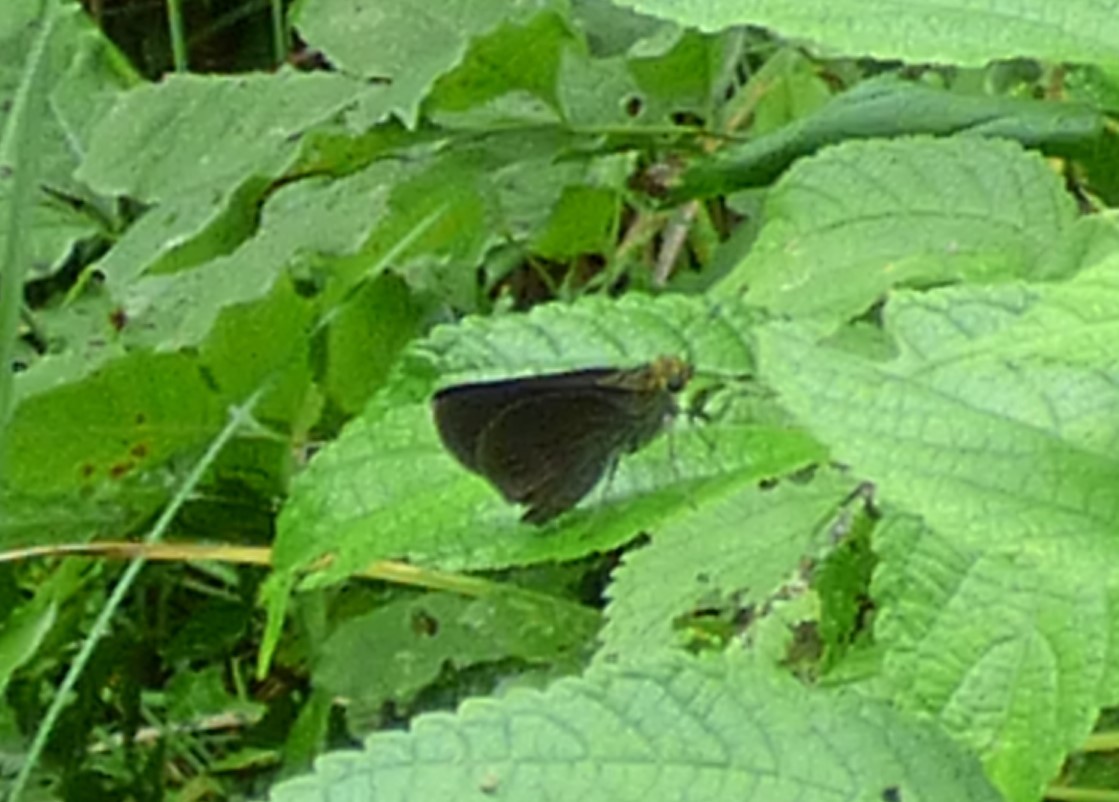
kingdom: Animalia
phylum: Arthropoda
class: Insecta
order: Lepidoptera
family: Hesperiidae
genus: Euphyes
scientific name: Euphyes vestris
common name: Dun skipper
